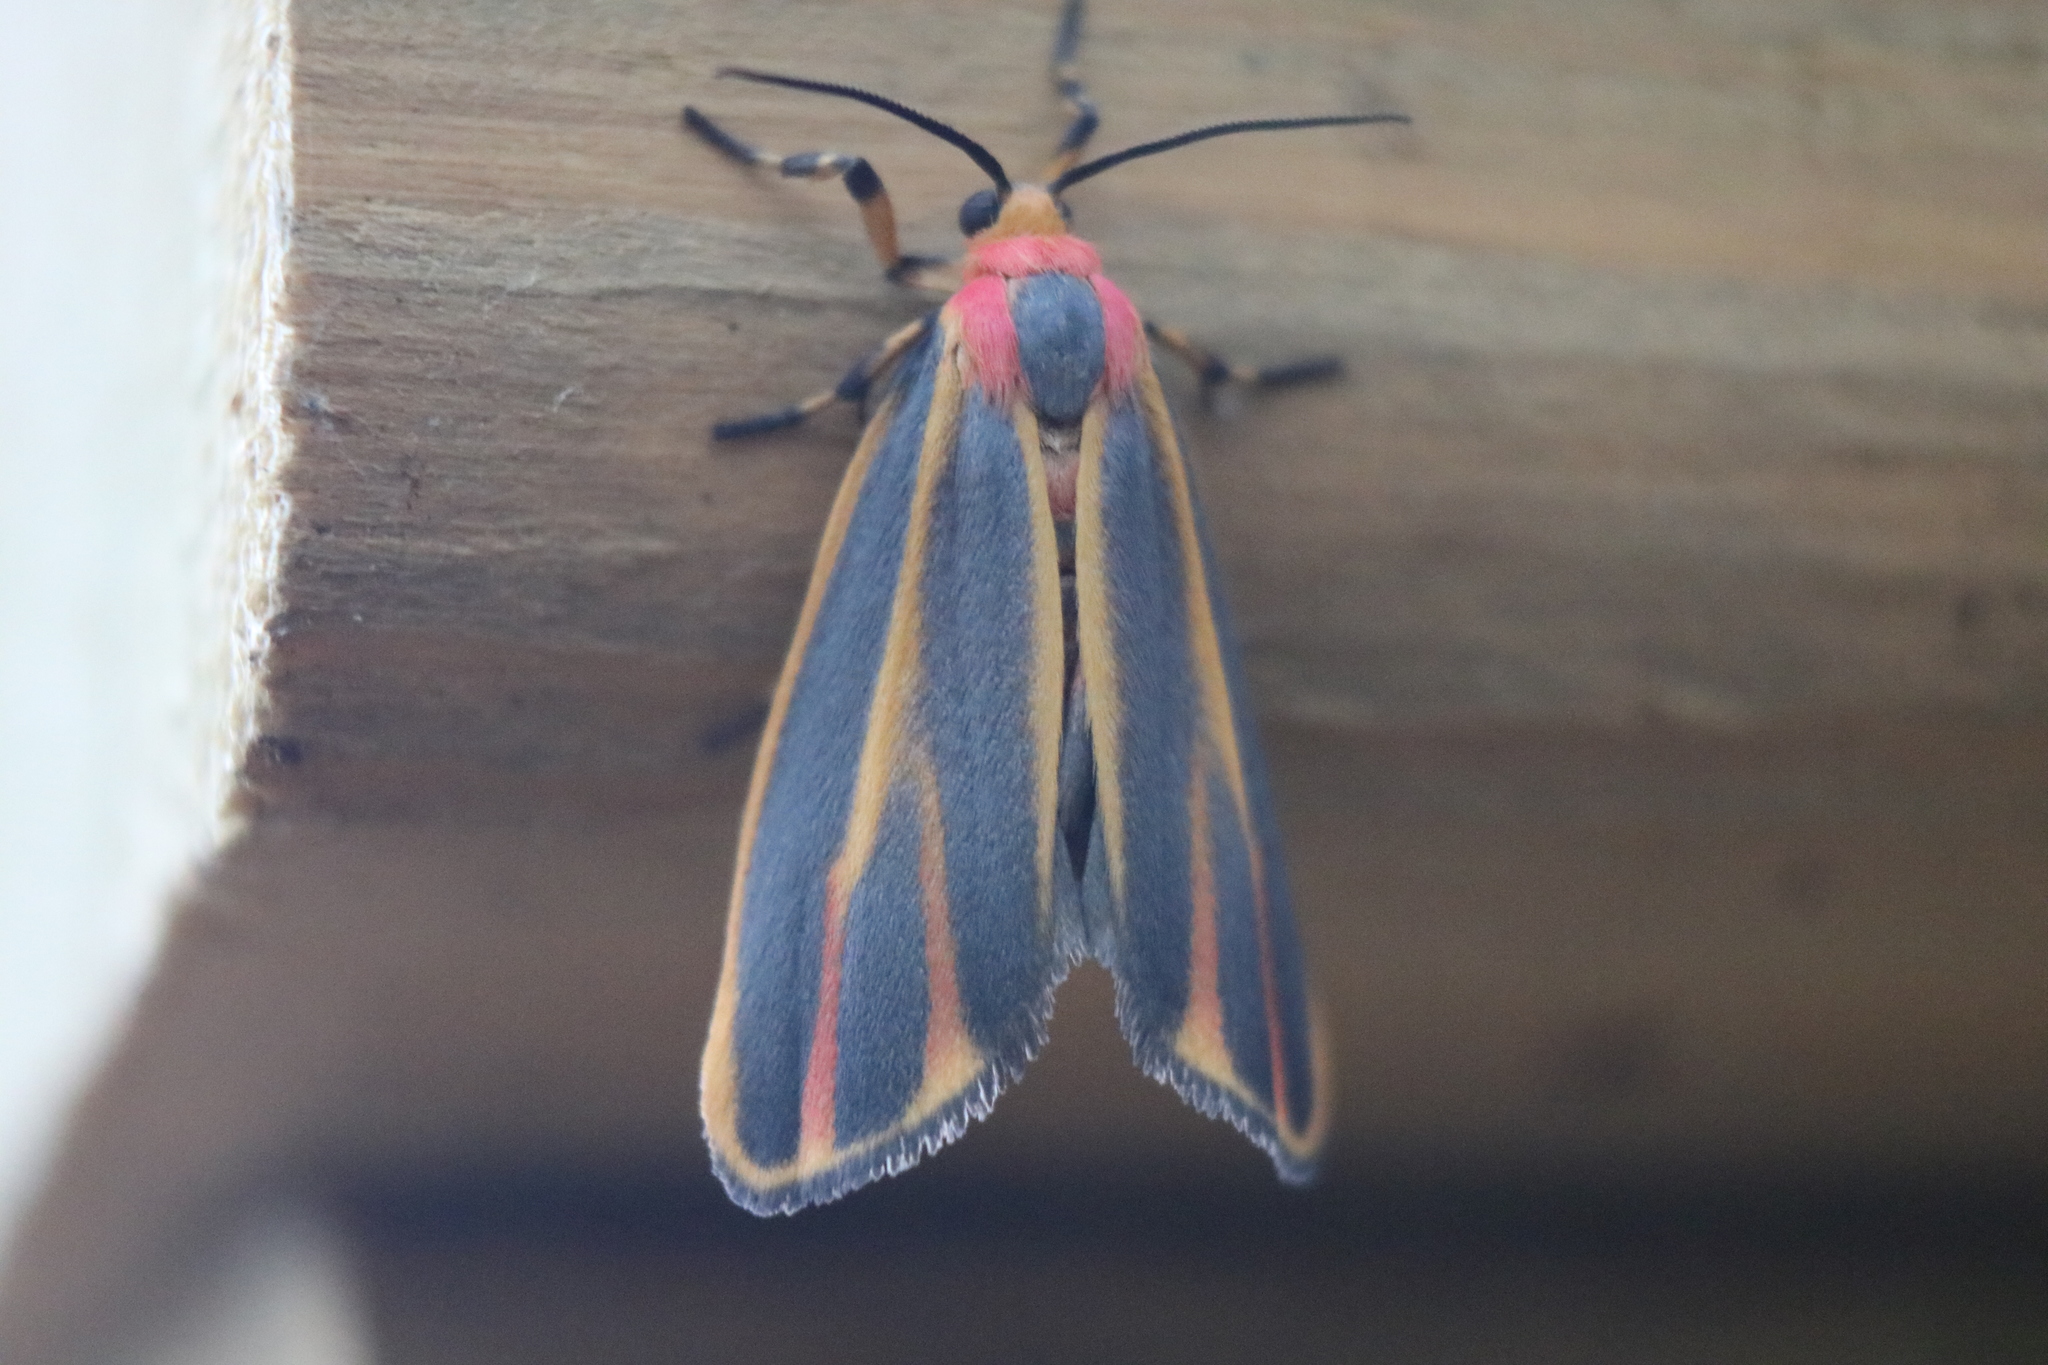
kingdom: Animalia
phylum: Arthropoda
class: Insecta
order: Lepidoptera
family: Erebidae
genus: Hypoprepia
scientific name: Hypoprepia fucosa
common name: Painted lichen moth
